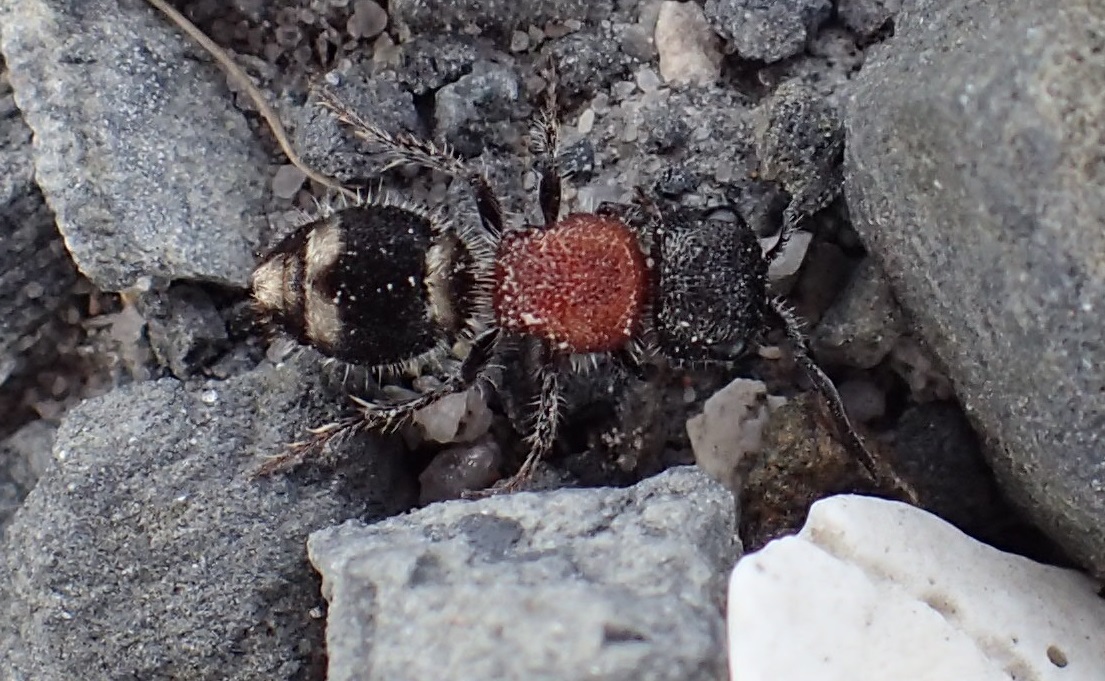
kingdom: Animalia
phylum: Arthropoda
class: Insecta
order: Hymenoptera
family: Mutillidae
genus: Ephutomorpha
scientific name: Ephutomorpha
